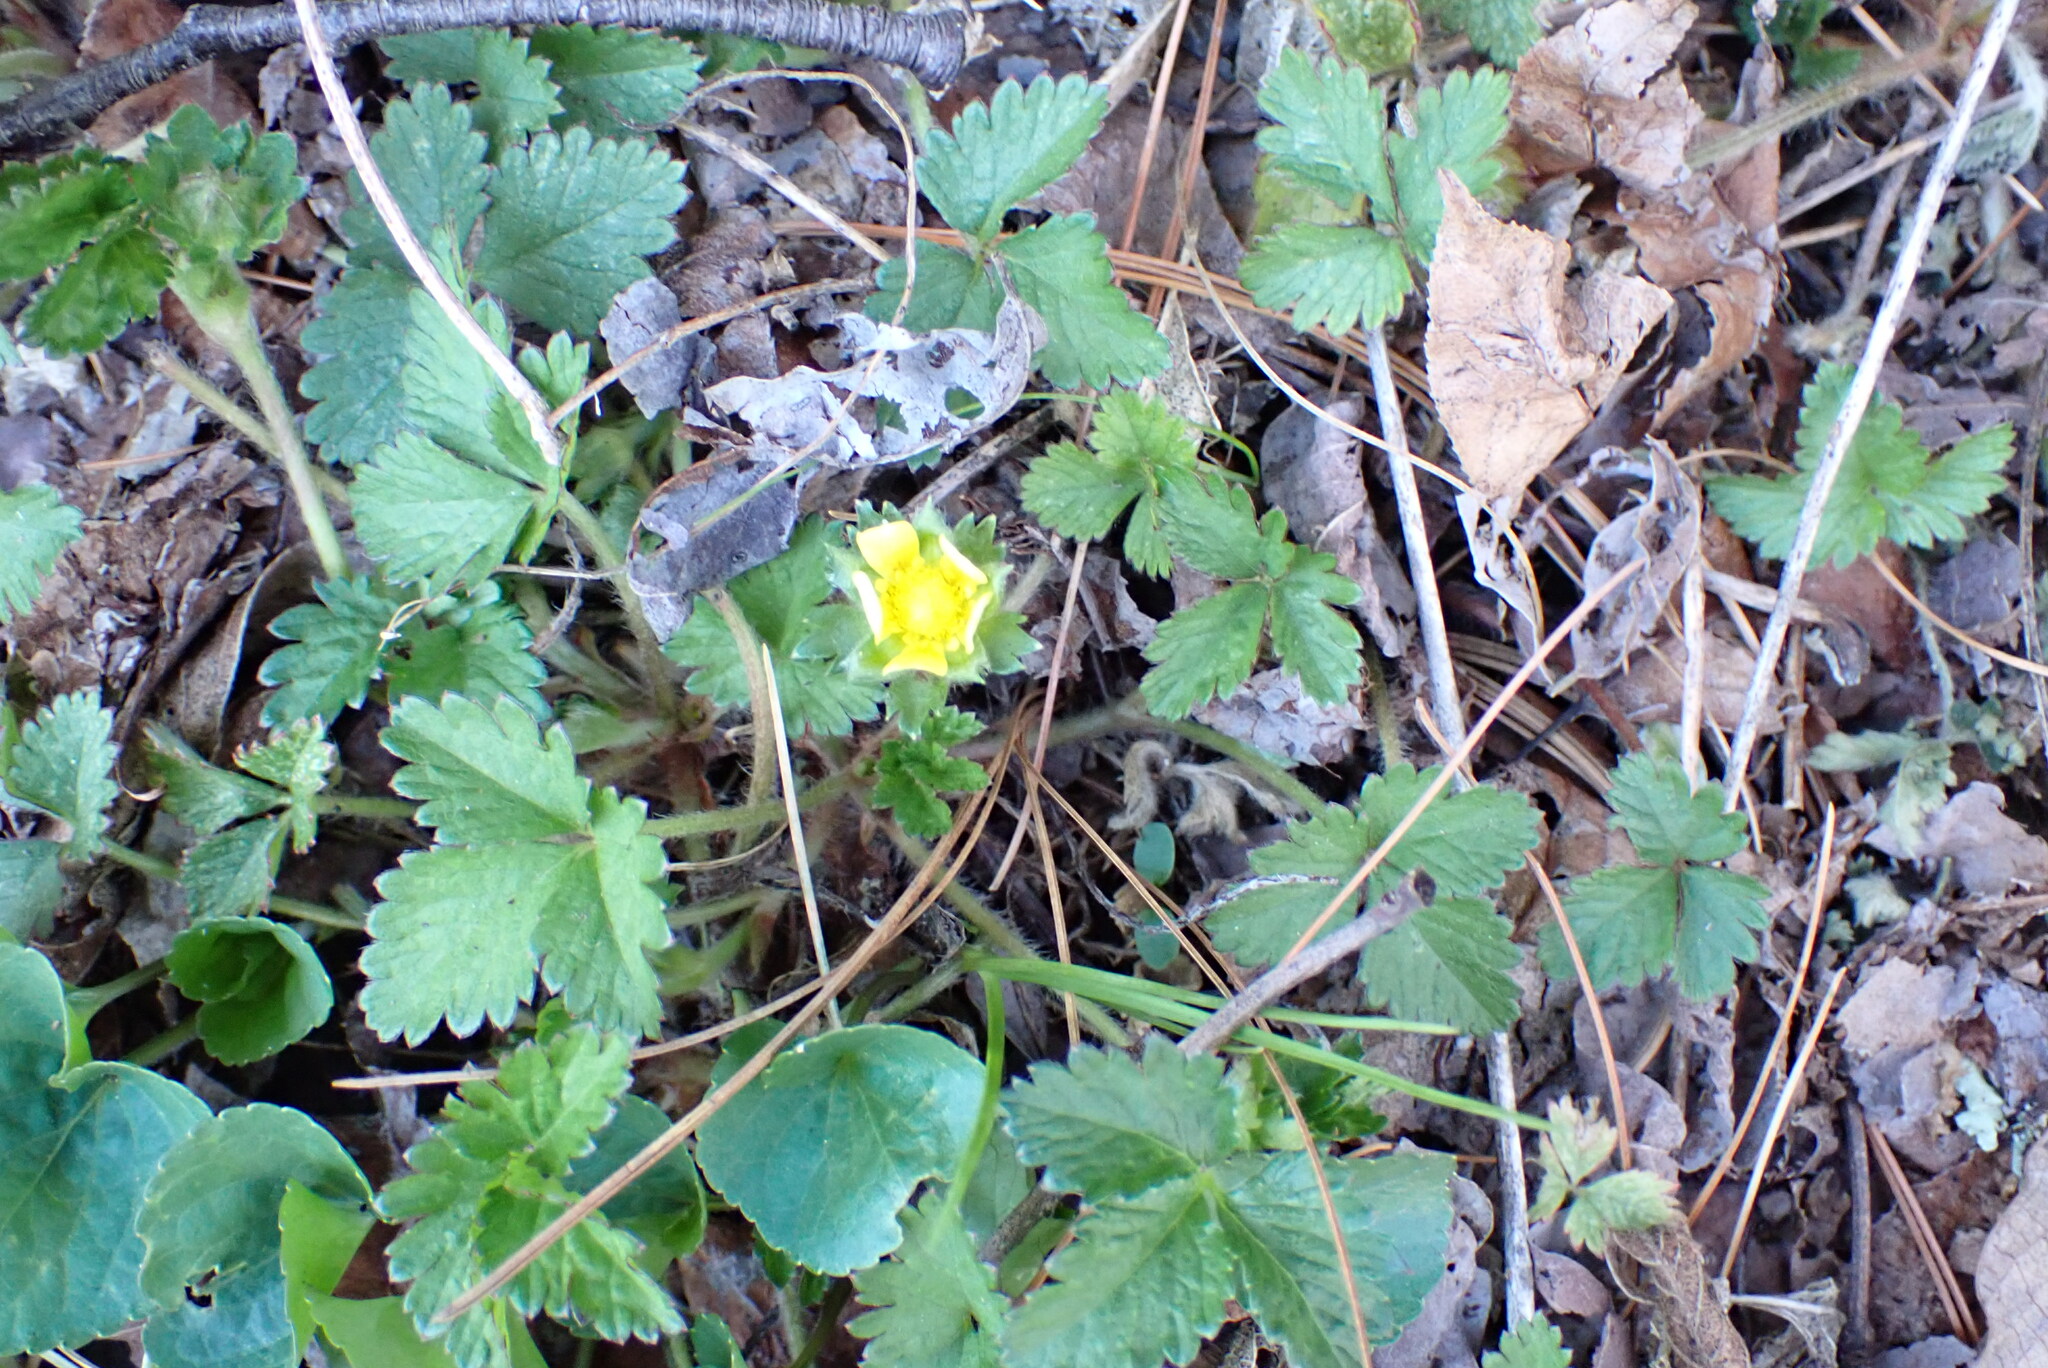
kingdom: Plantae
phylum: Tracheophyta
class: Magnoliopsida
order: Rosales
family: Rosaceae
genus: Potentilla
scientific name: Potentilla indica
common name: Yellow-flowered strawberry
